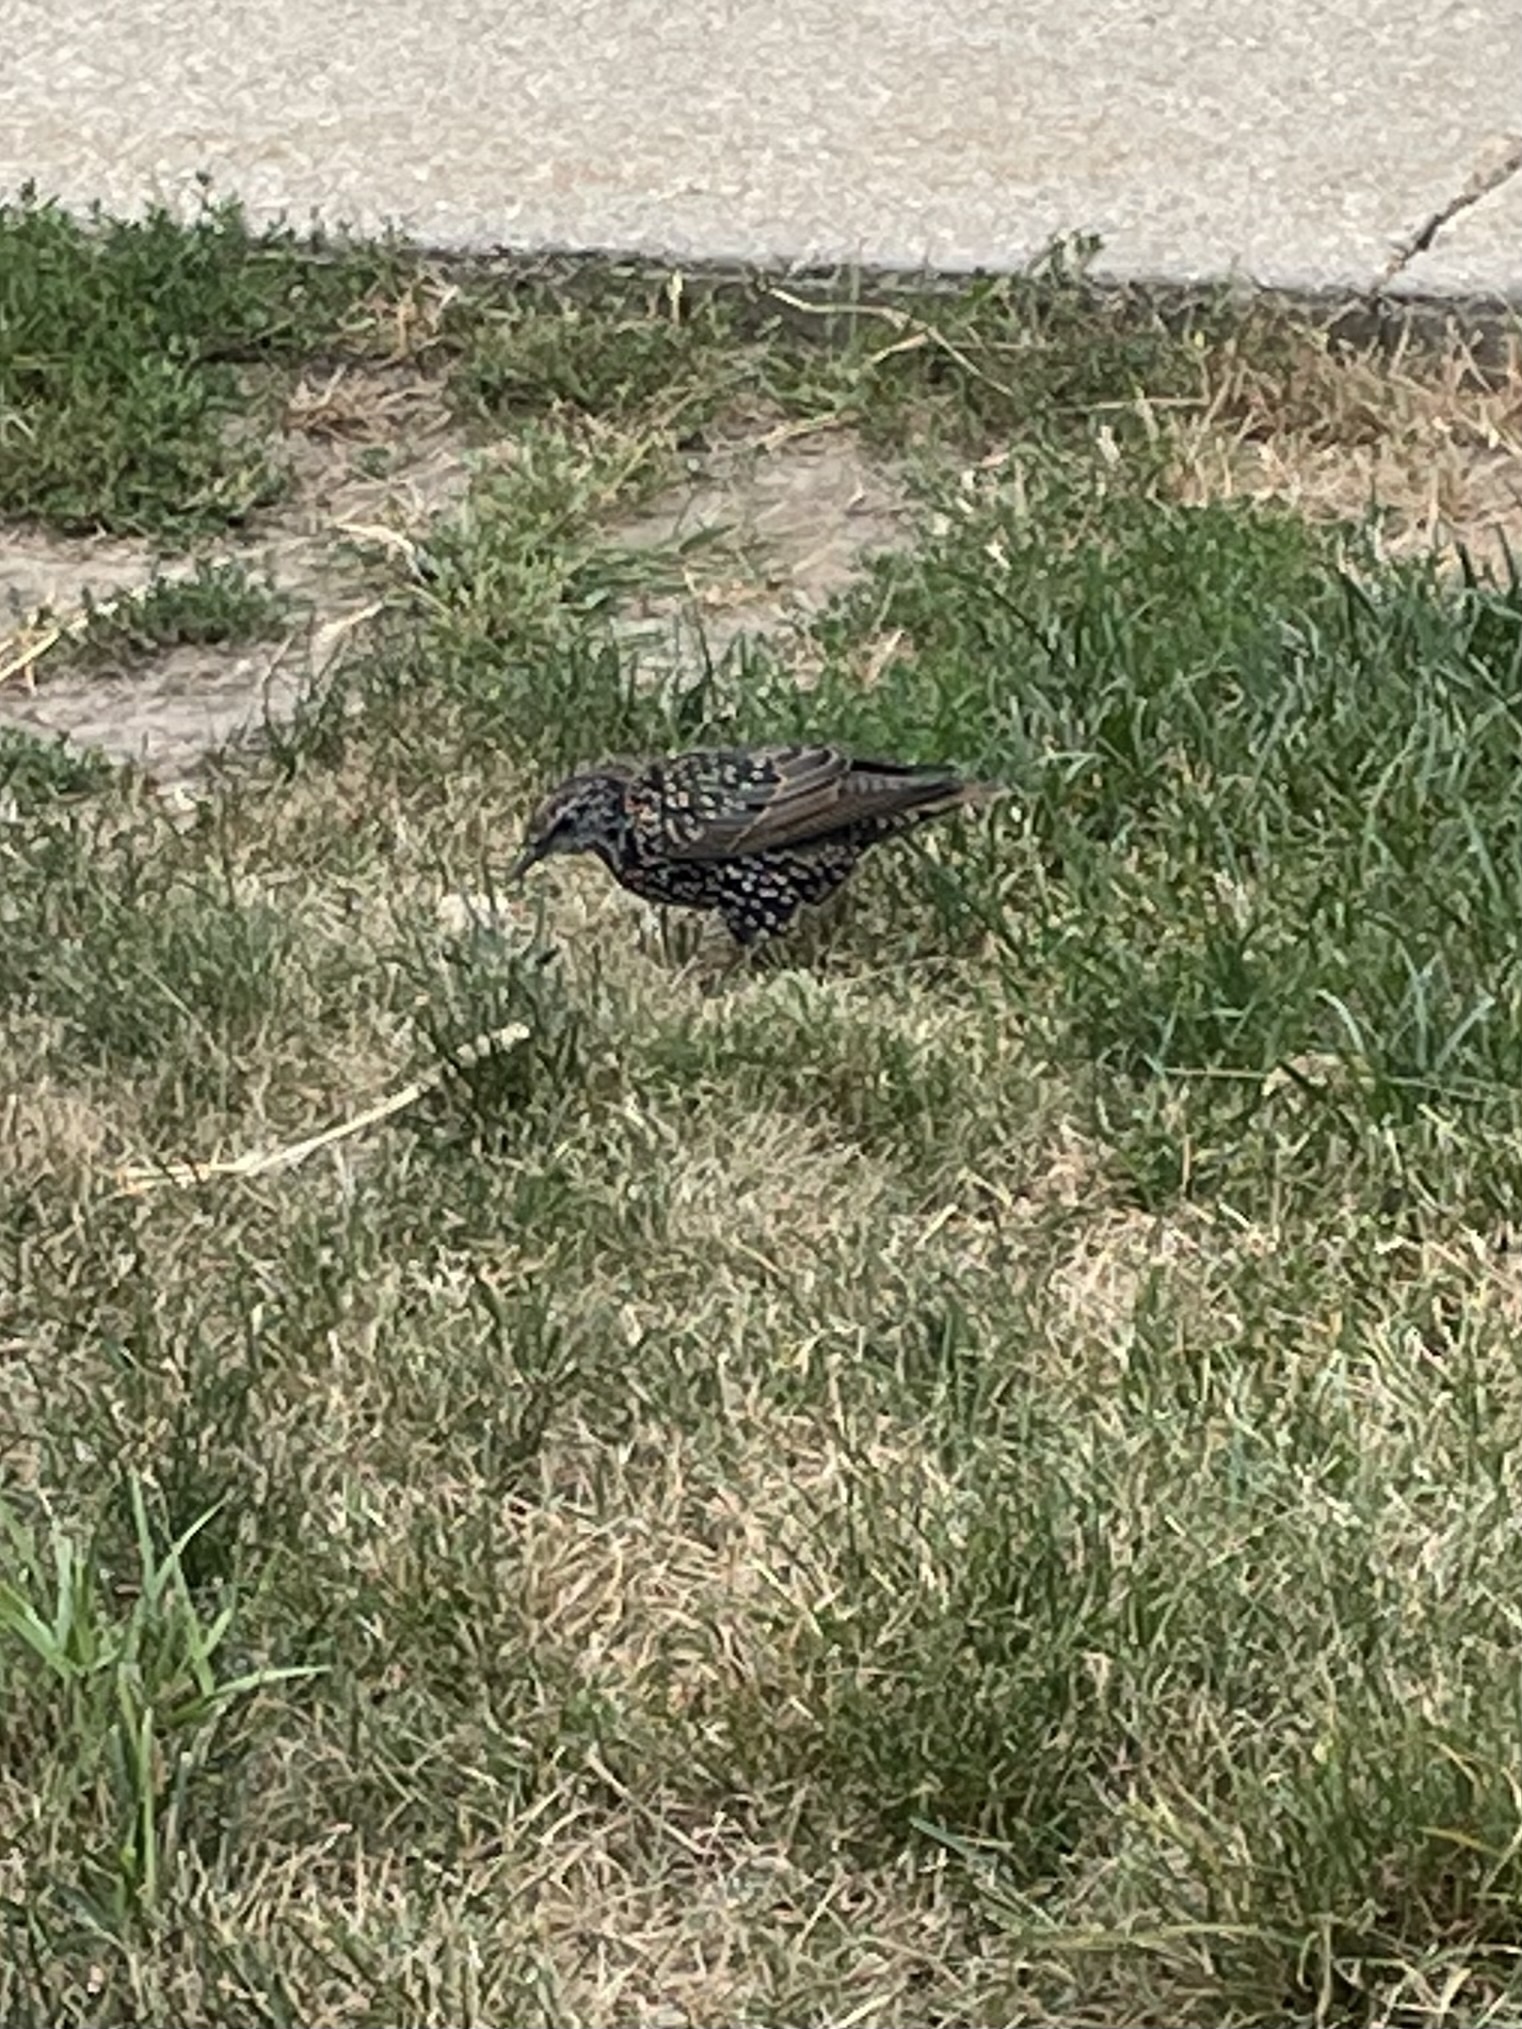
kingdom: Animalia
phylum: Chordata
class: Aves
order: Passeriformes
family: Sturnidae
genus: Sturnus
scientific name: Sturnus vulgaris
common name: Common starling
